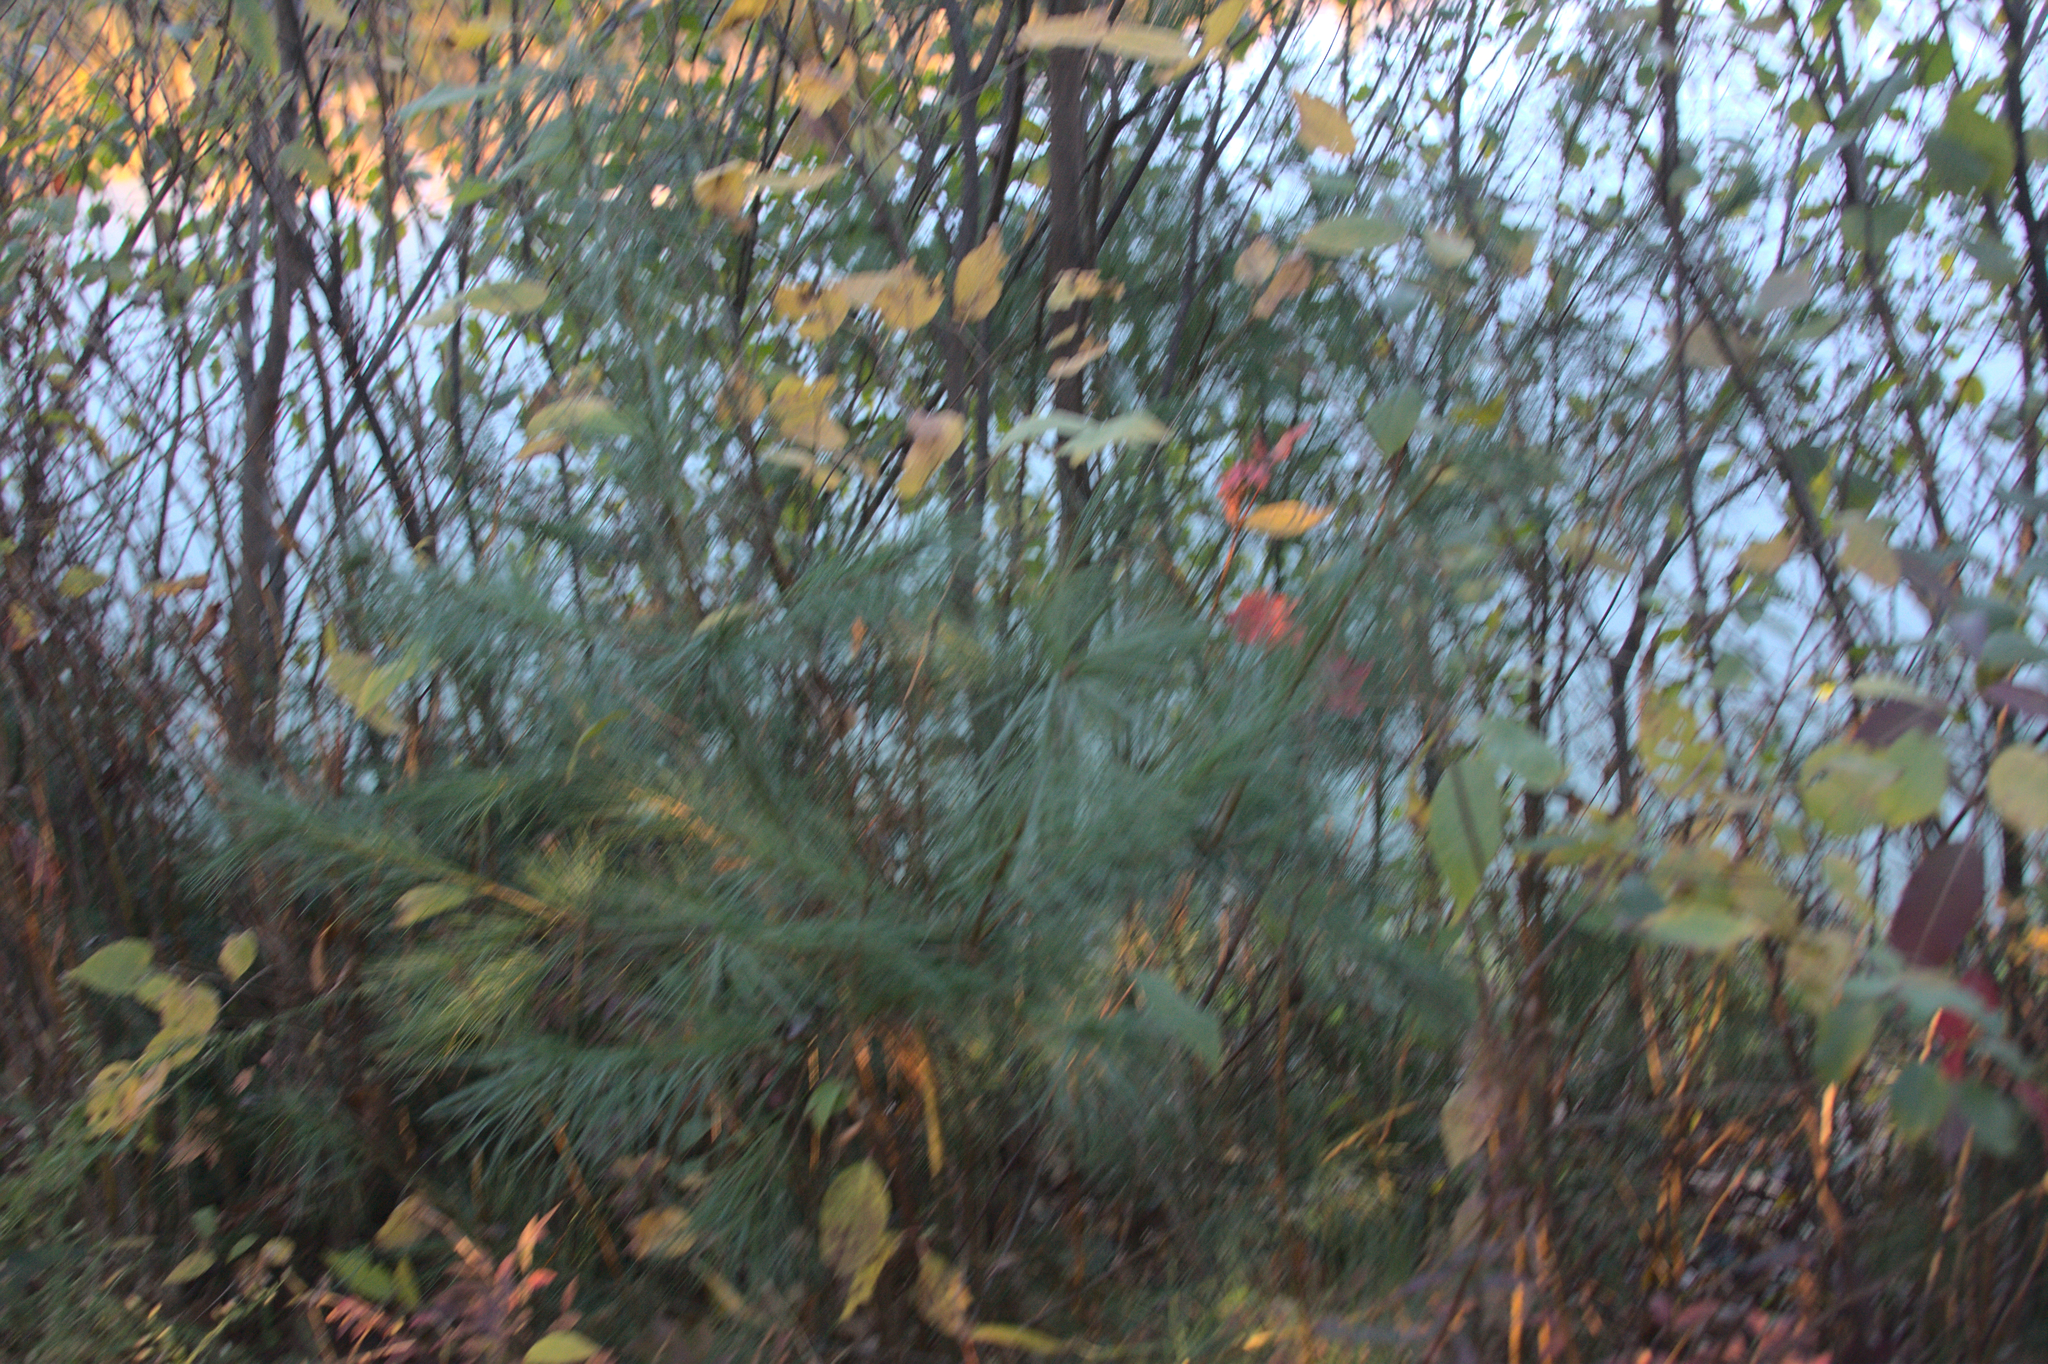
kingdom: Plantae
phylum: Tracheophyta
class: Pinopsida
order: Pinales
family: Pinaceae
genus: Pinus
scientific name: Pinus strobus
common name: Weymouth pine
